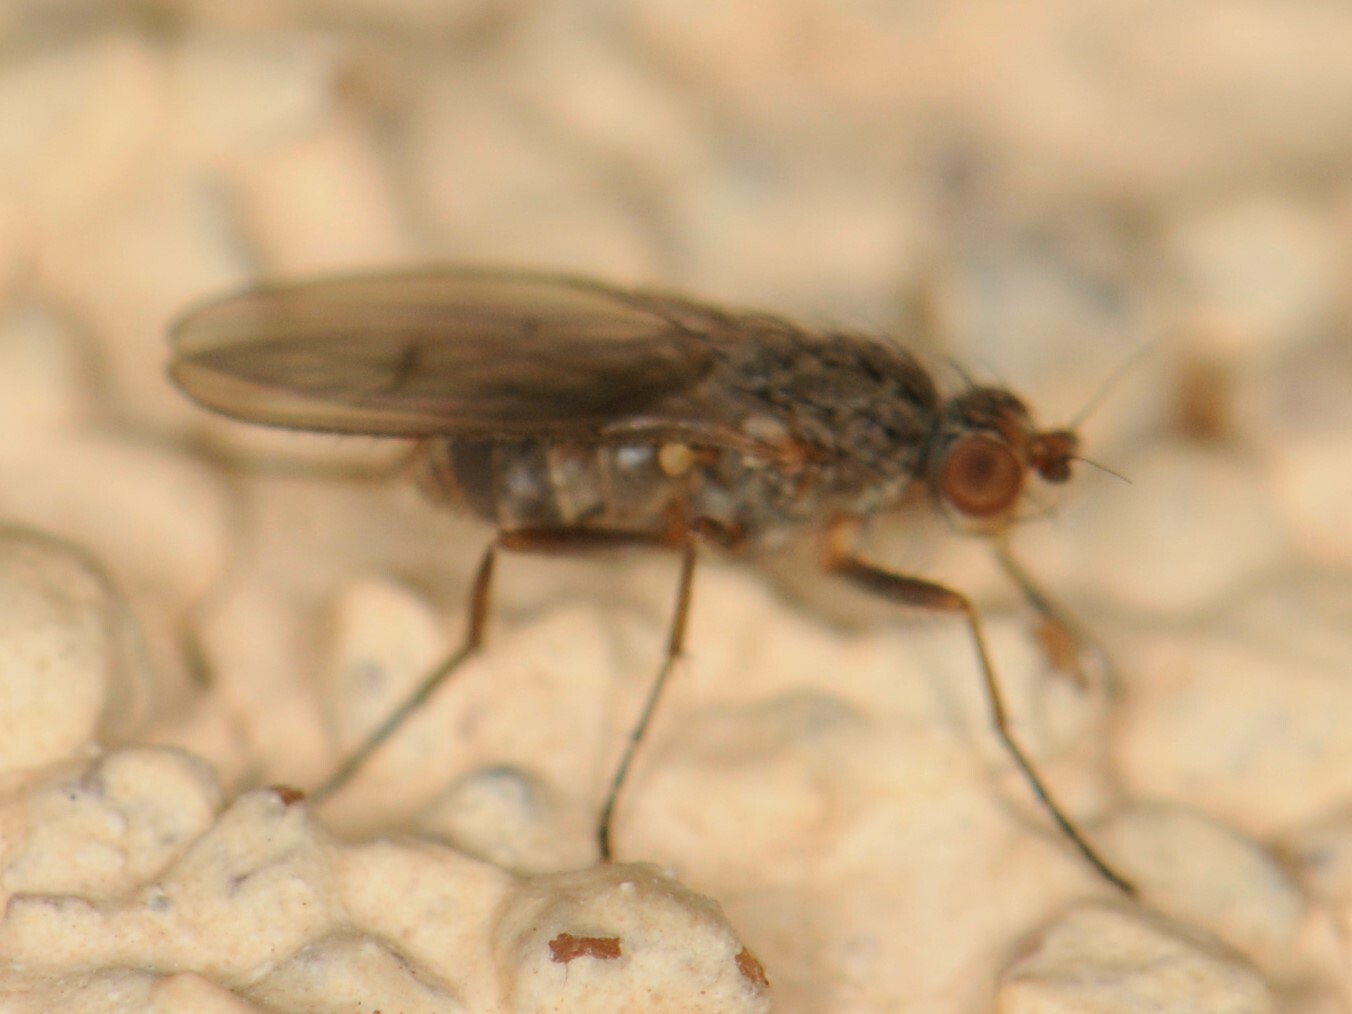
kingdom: Animalia
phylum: Arthropoda
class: Insecta
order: Diptera
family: Heleomyzidae
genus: Pseudoleria
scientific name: Pseudoleria
